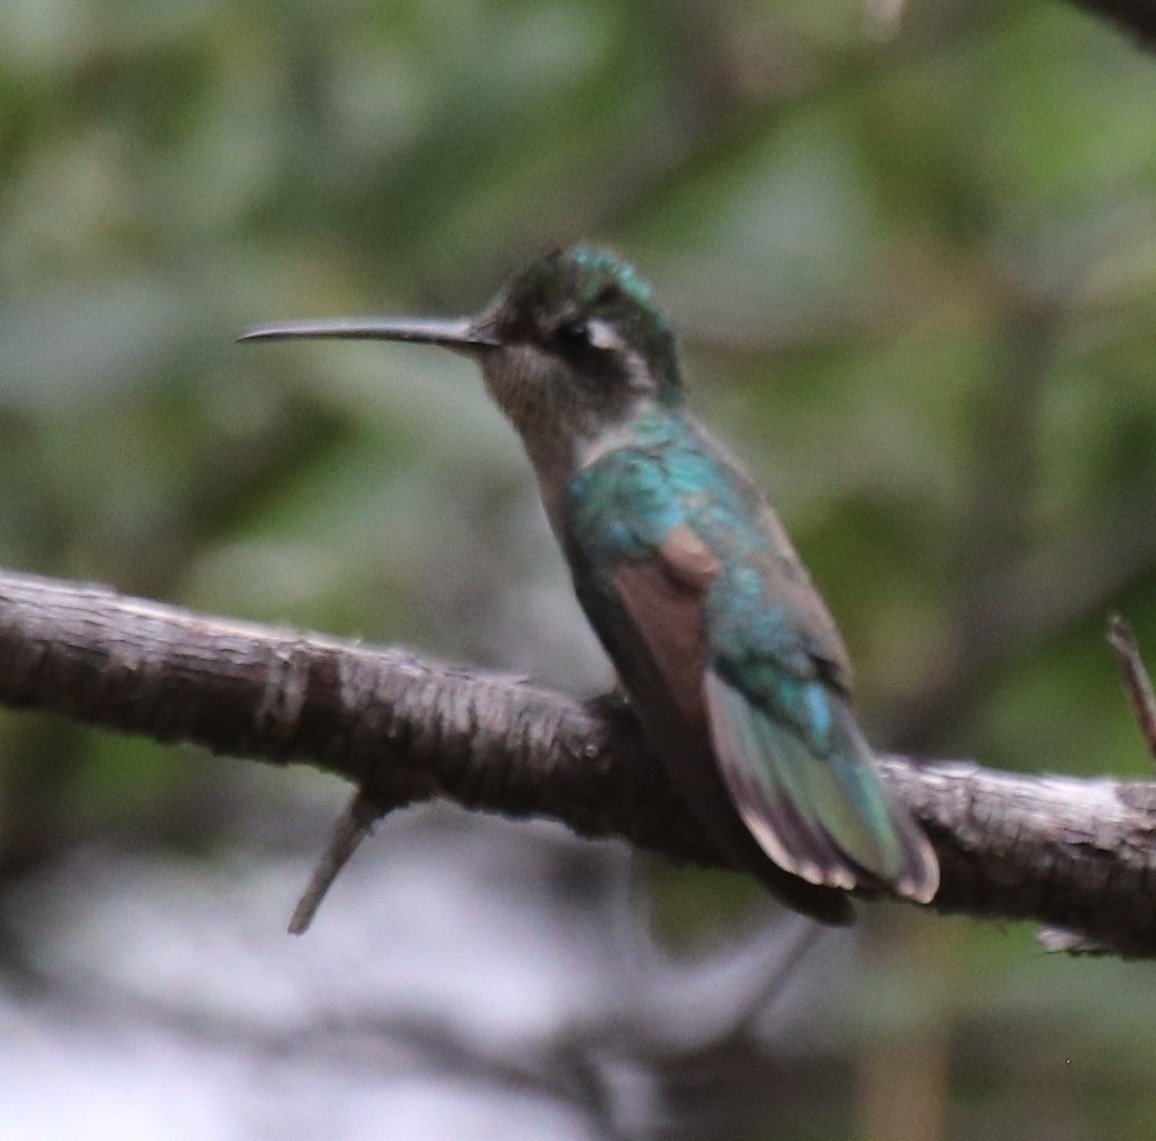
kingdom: Animalia
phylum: Chordata
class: Aves
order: Apodiformes
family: Trochilidae
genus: Eugenes
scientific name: Eugenes fulgens
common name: Magnificent hummingbird
